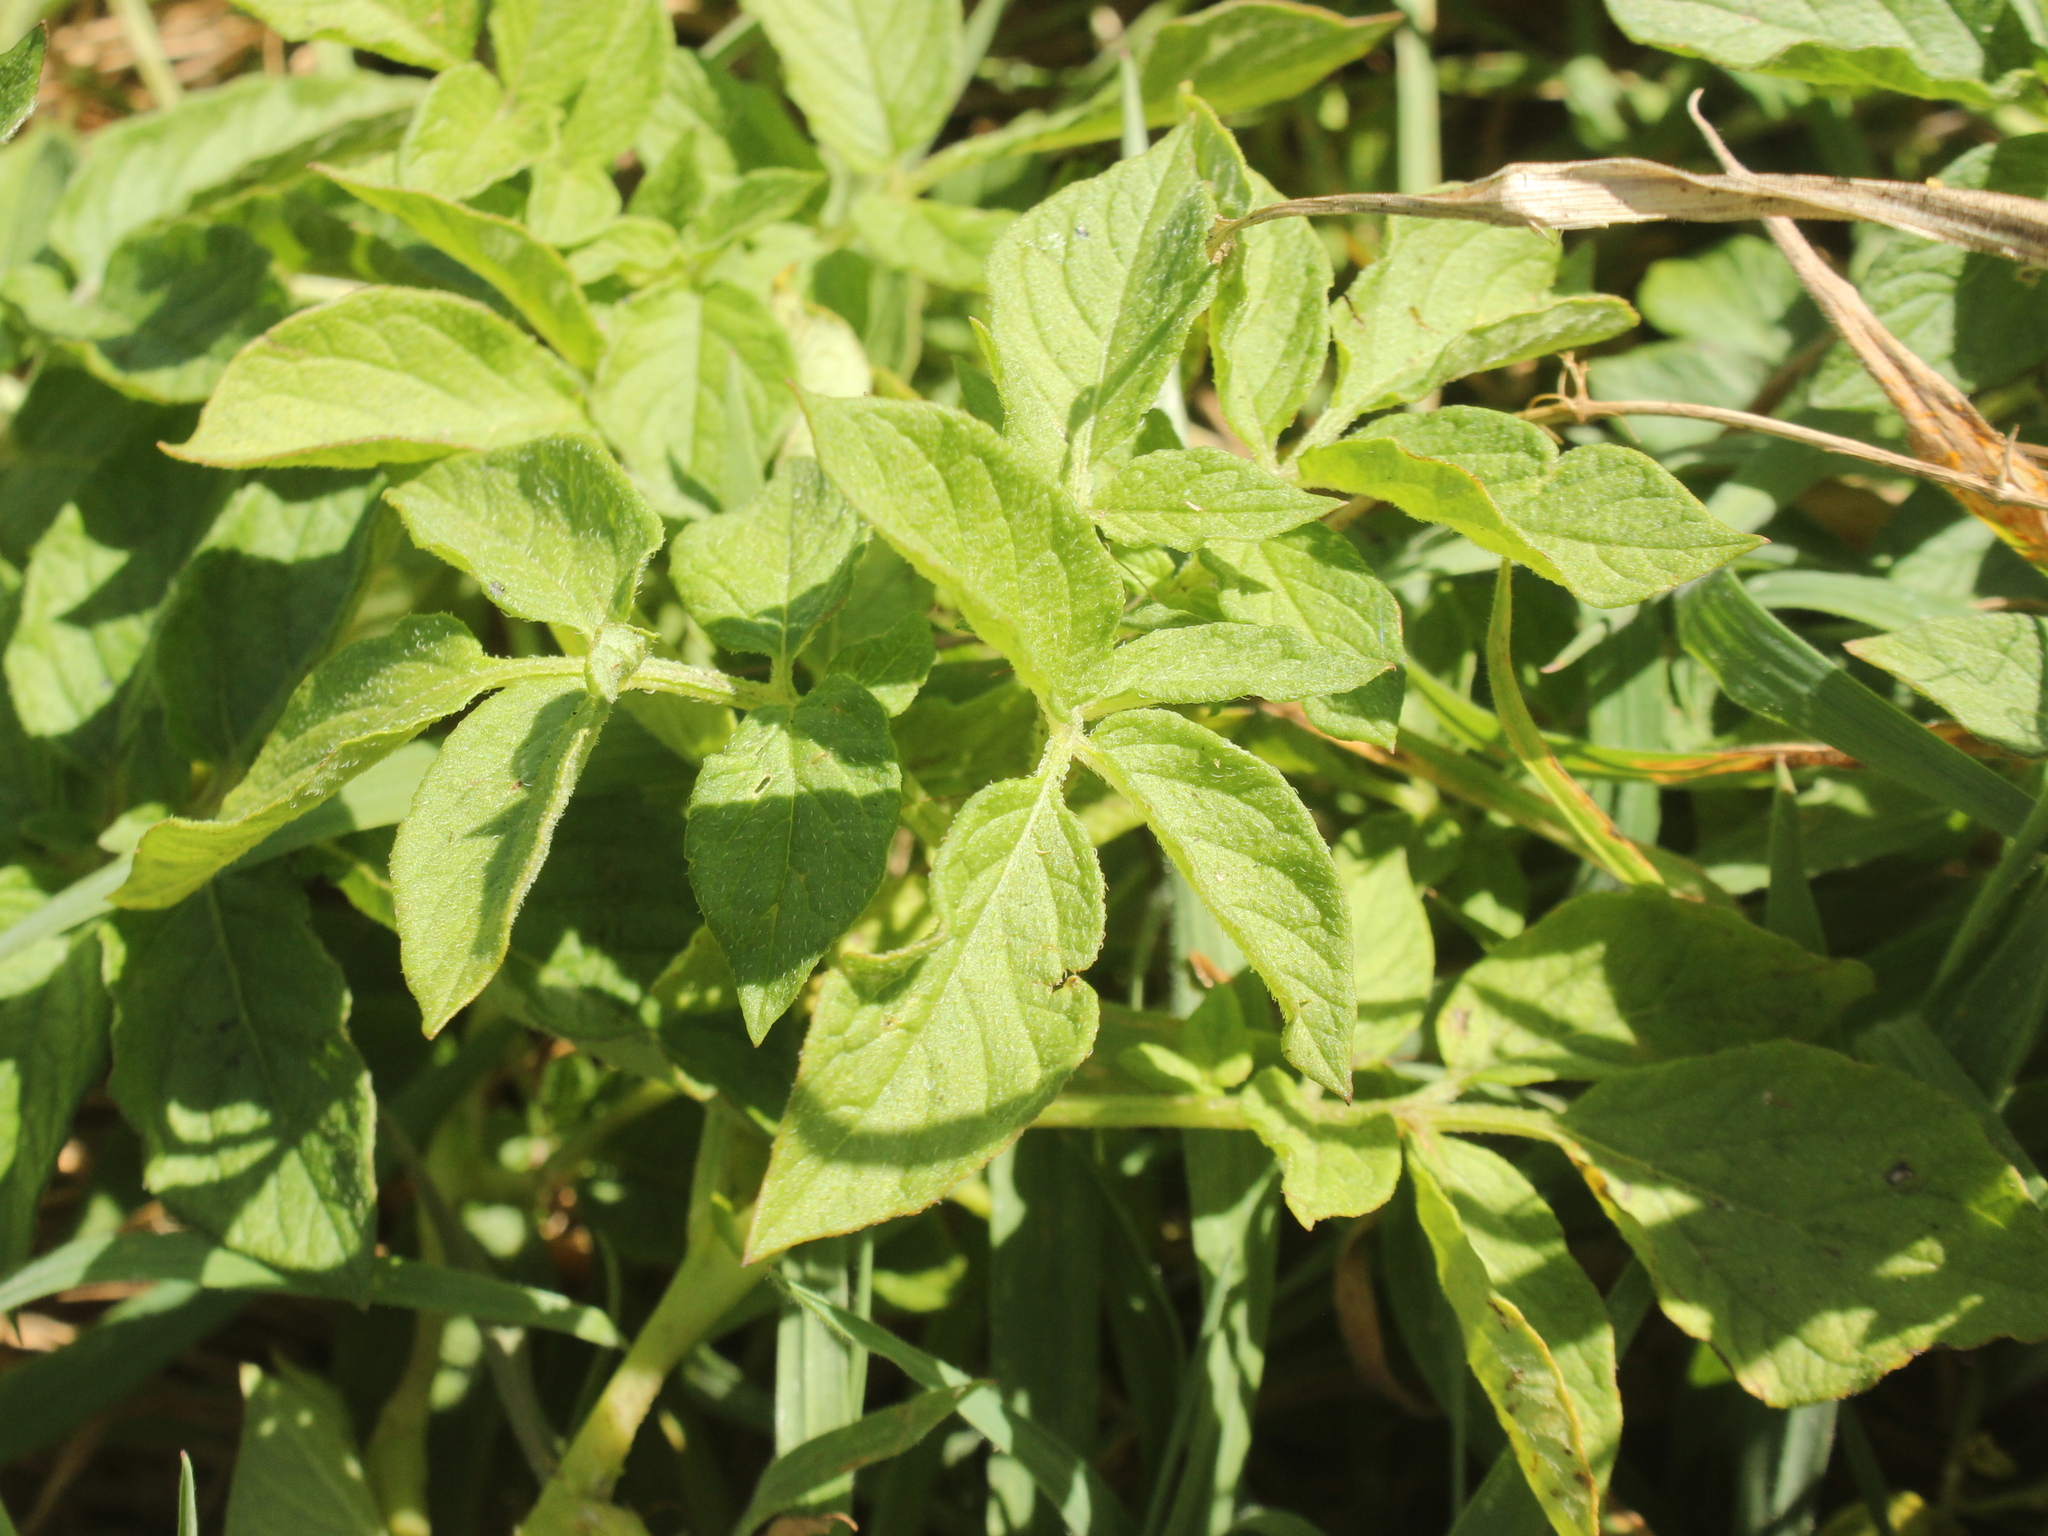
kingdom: Plantae
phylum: Tracheophyta
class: Magnoliopsida
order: Solanales
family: Solanaceae
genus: Solanum
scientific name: Solanum tuberosum
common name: Potato
